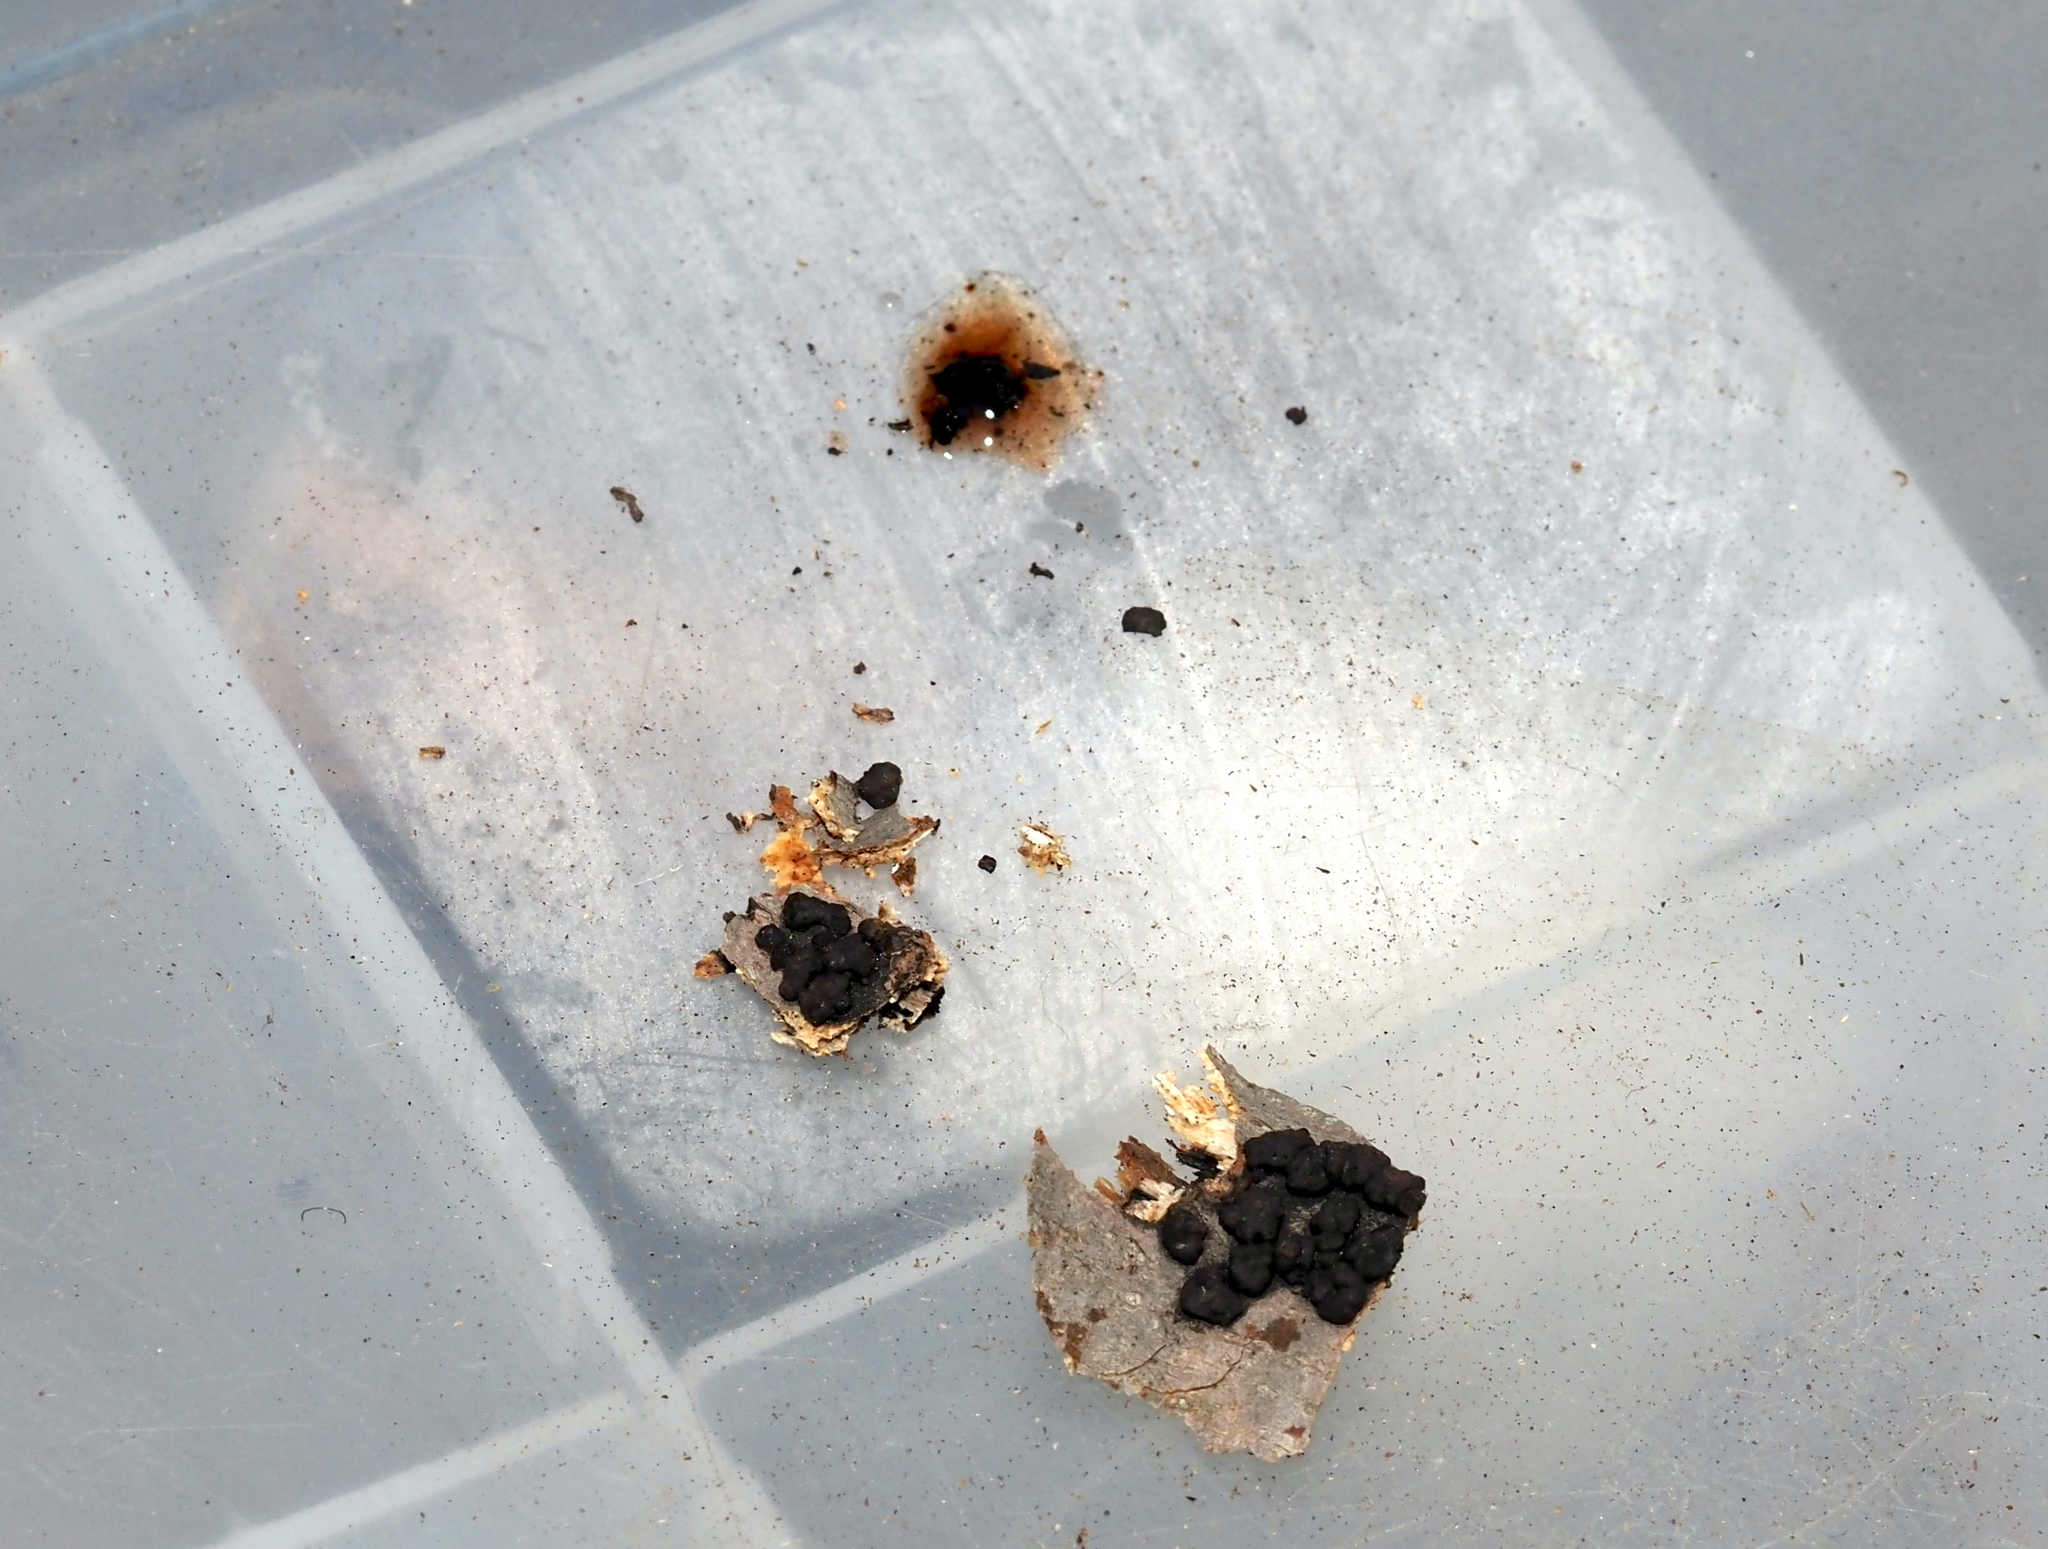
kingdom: Fungi
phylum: Ascomycota
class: Sordariomycetes
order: Xylariales
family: Hypoxylaceae
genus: Jackrogersella
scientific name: Jackrogersella multiformis
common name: Birch woodwart
